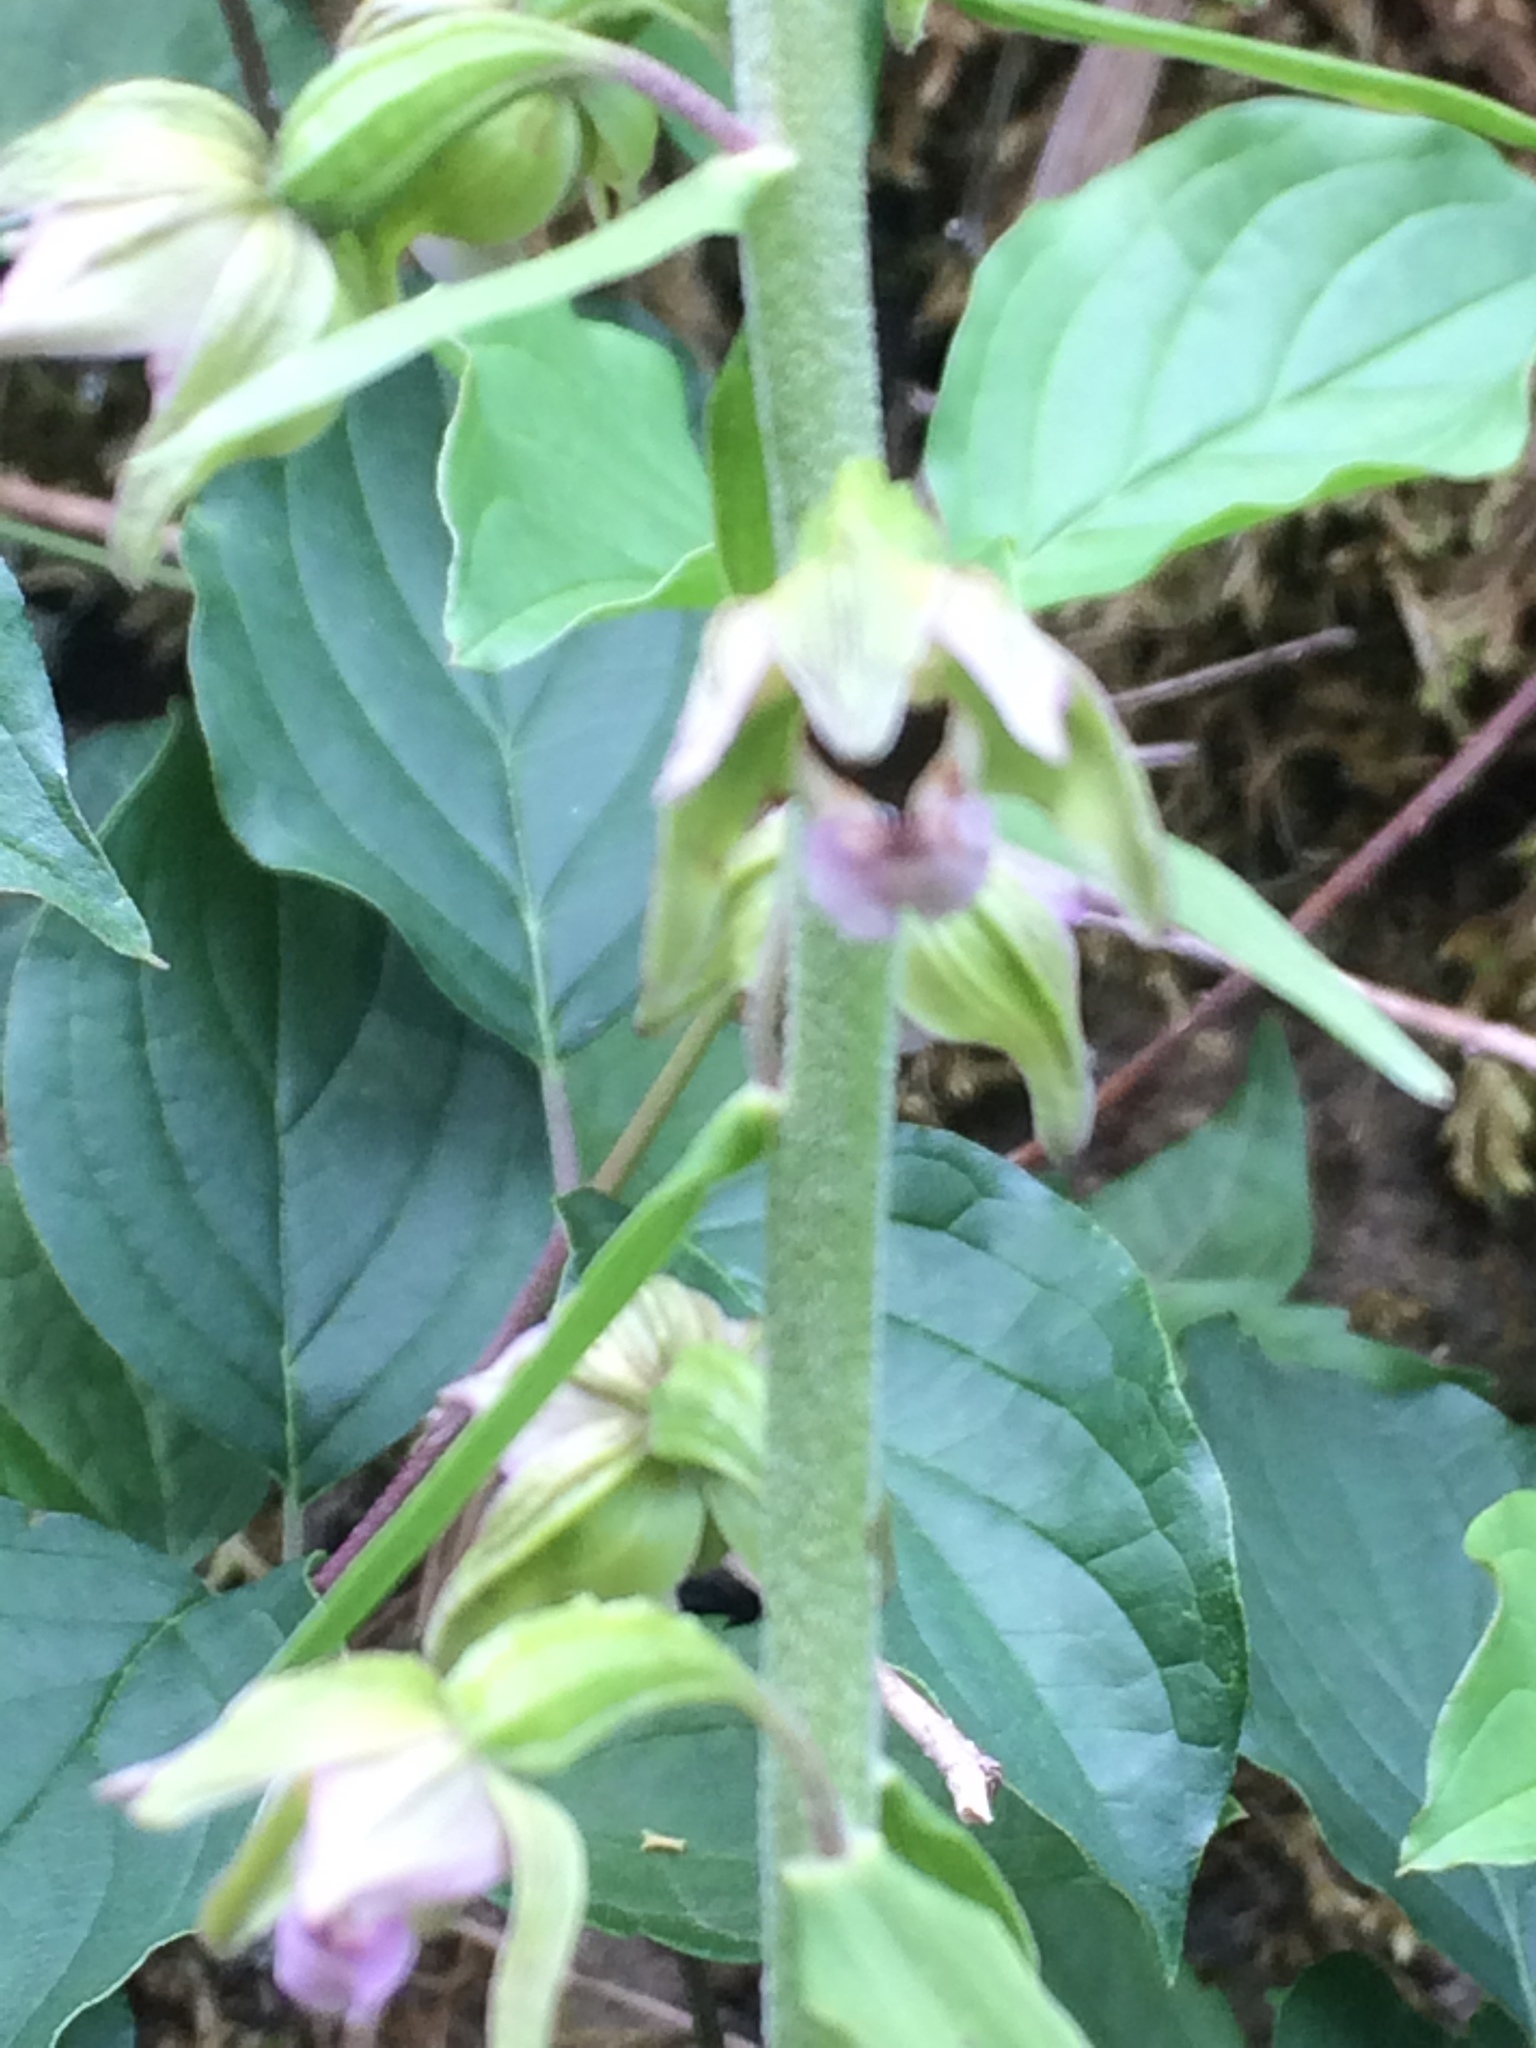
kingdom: Plantae
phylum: Tracheophyta
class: Liliopsida
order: Asparagales
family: Orchidaceae
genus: Epipactis
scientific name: Epipactis helleborine
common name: Broad-leaved helleborine
